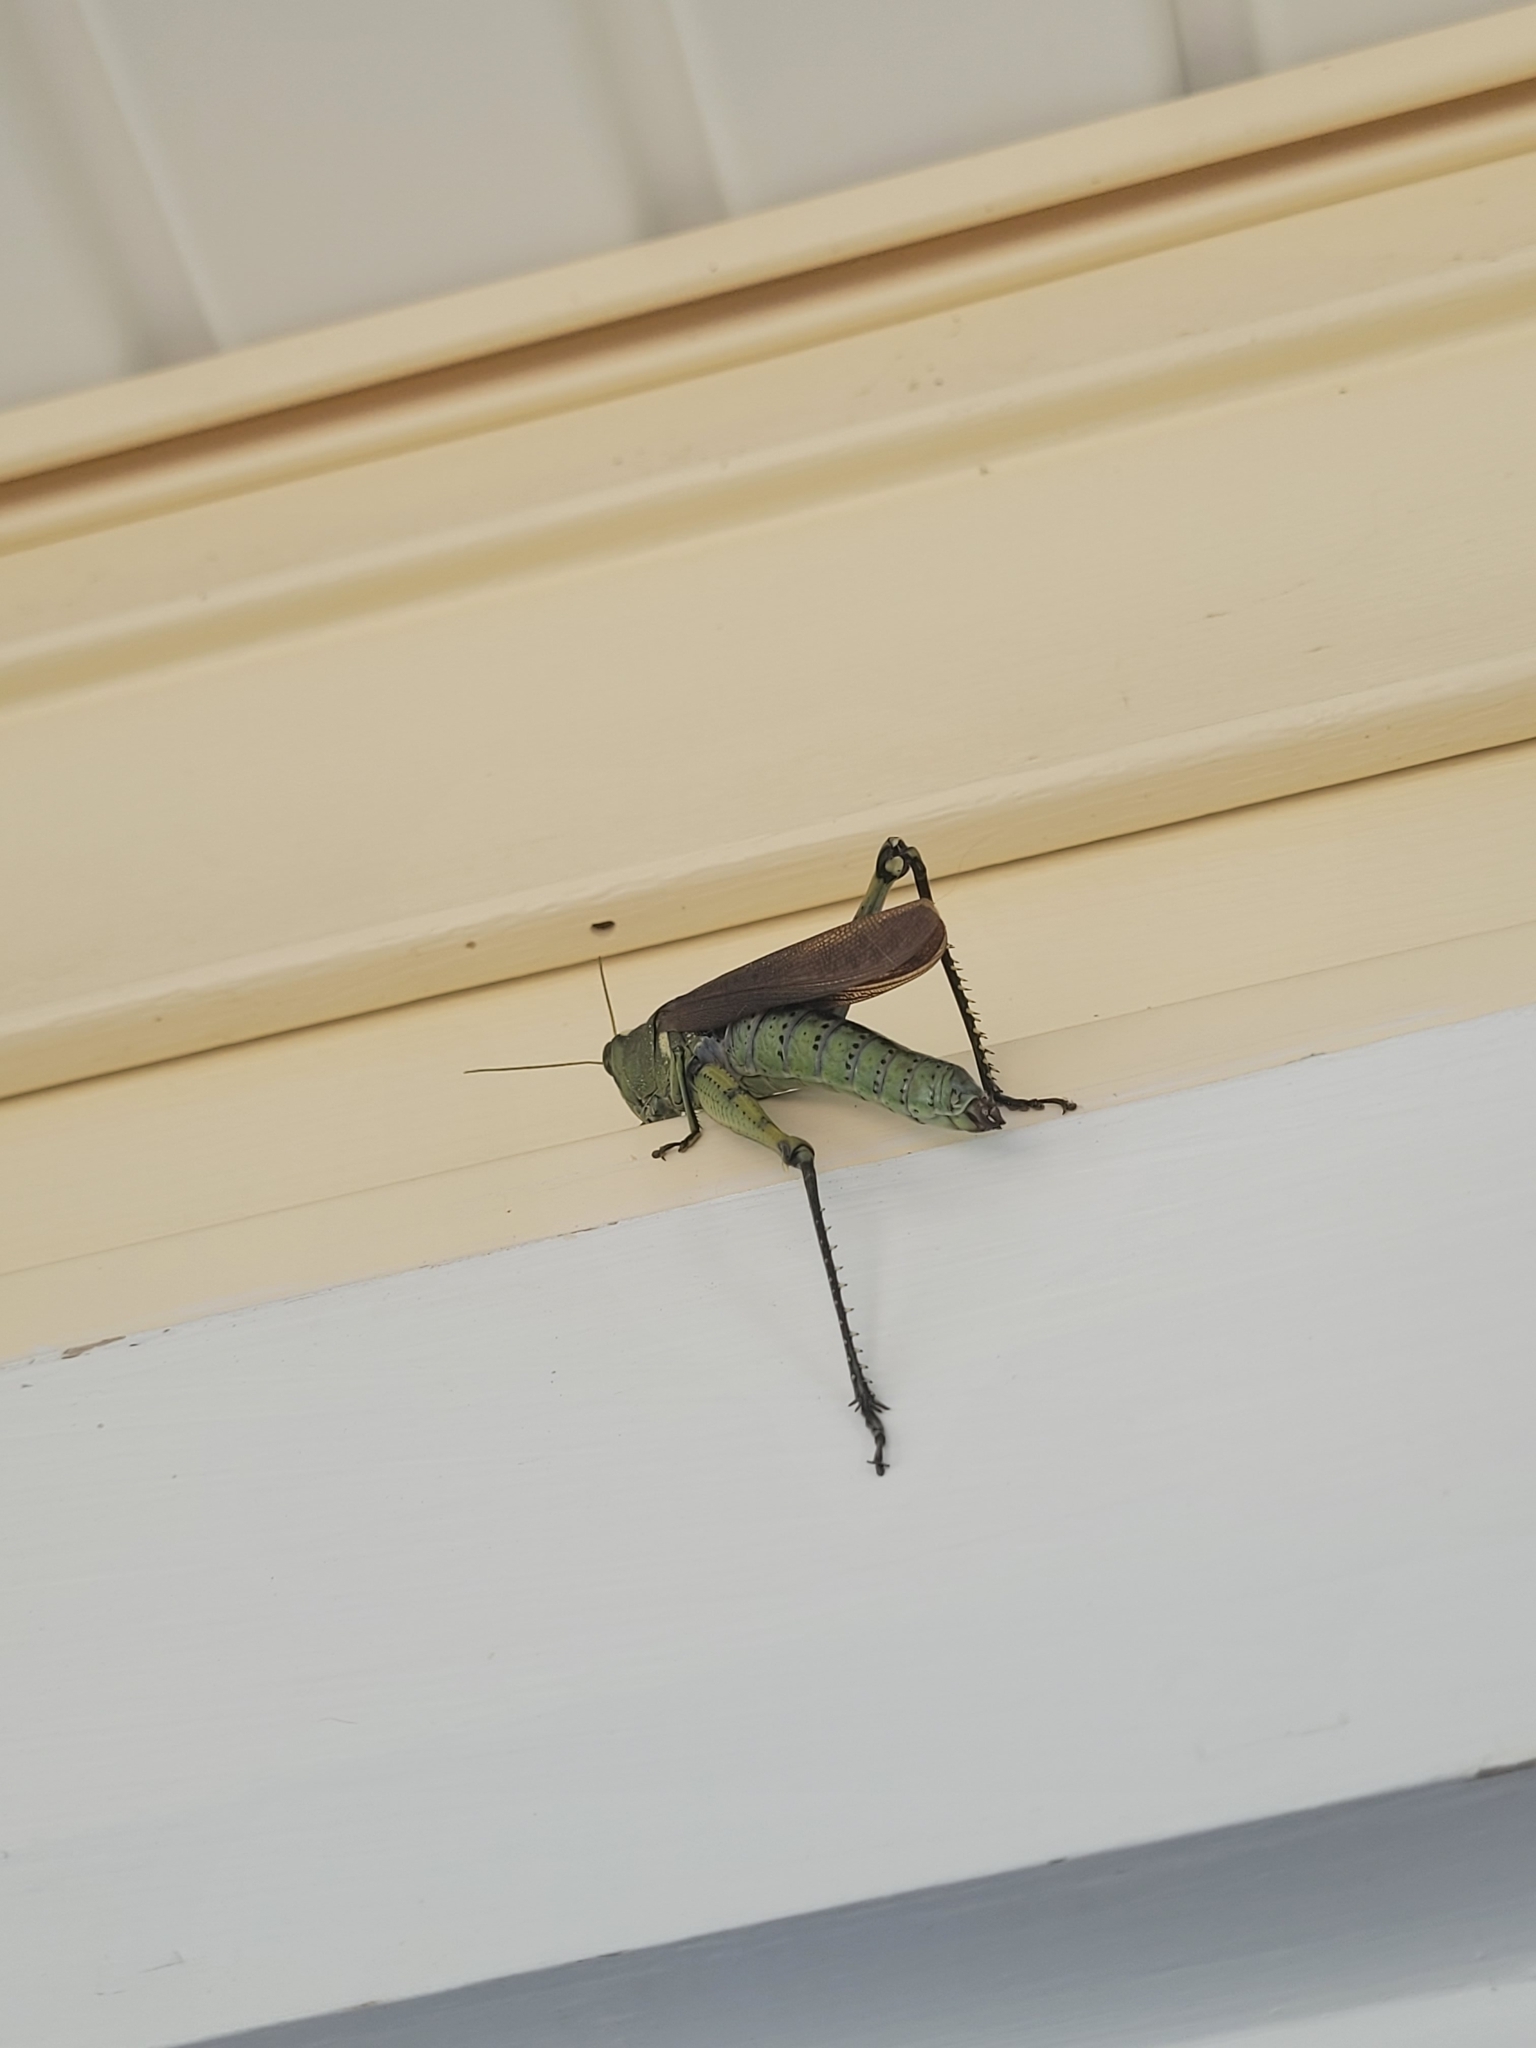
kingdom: Animalia
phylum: Arthropoda
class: Insecta
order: Orthoptera
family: Acrididae
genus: Schistocerca
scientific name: Schistocerca obscura
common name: Obscure bird grasshopper
